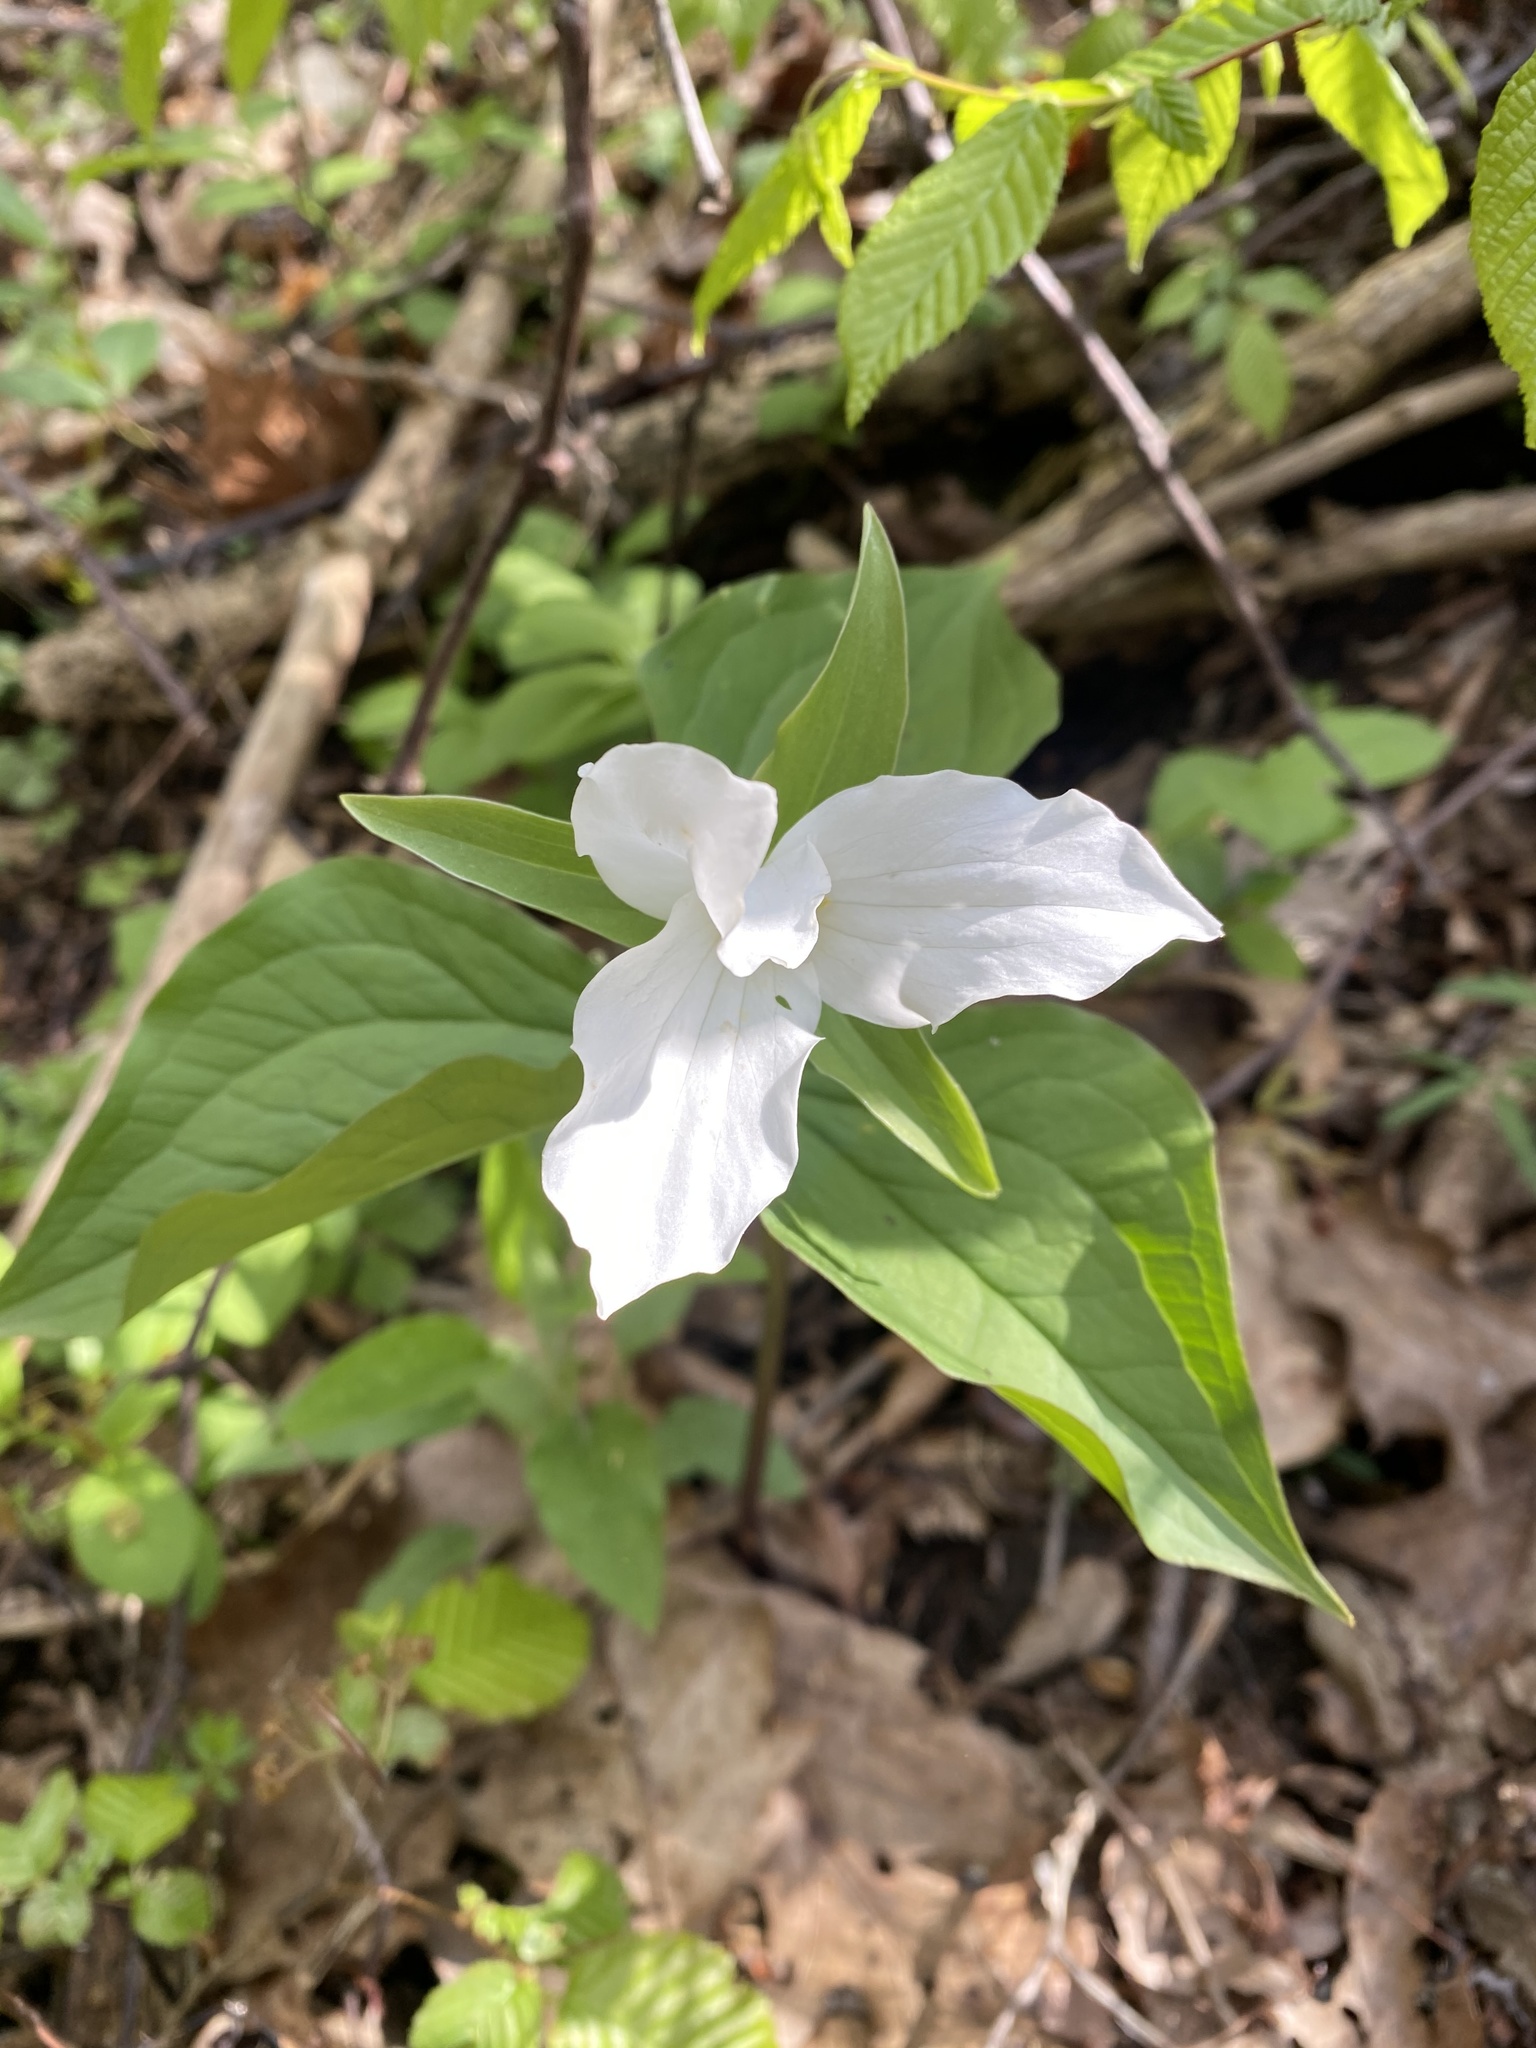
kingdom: Plantae
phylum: Tracheophyta
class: Liliopsida
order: Liliales
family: Melanthiaceae
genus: Trillium
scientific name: Trillium grandiflorum
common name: Great white trillium
